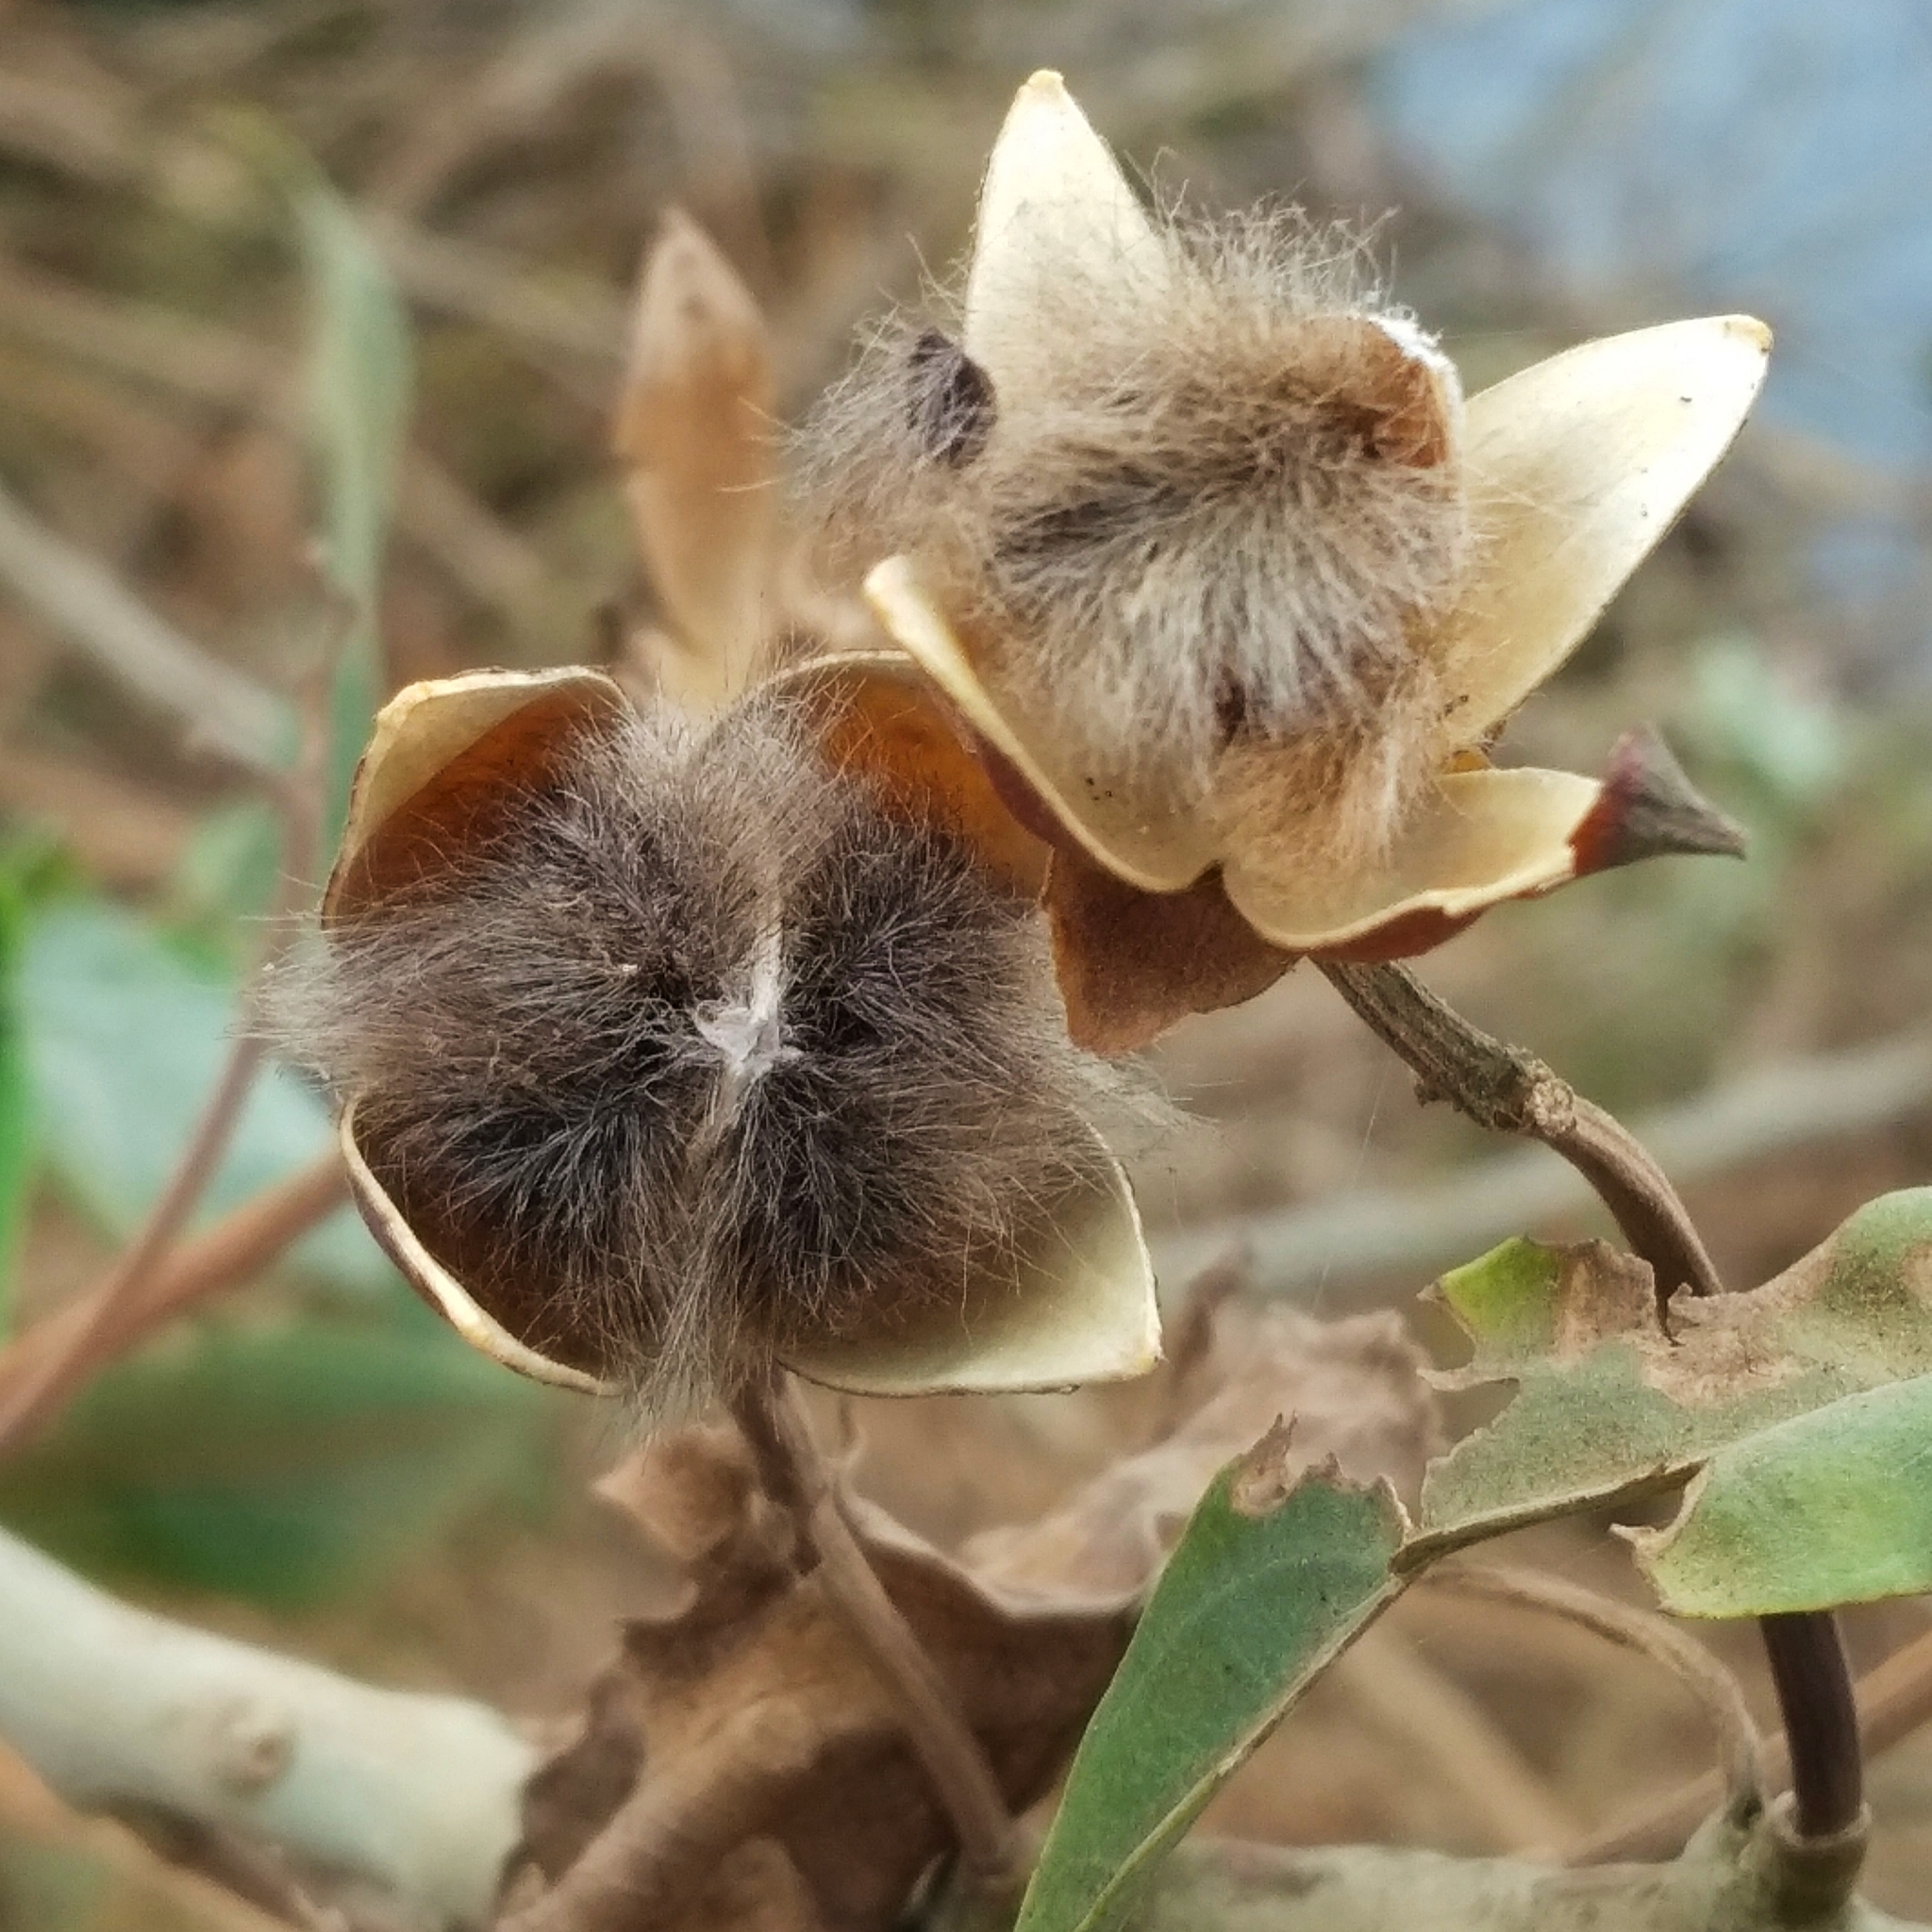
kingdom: Plantae
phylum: Tracheophyta
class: Magnoliopsida
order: Solanales
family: Convolvulaceae
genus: Ipomoea
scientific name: Ipomoea carnea
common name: Morning-glory
